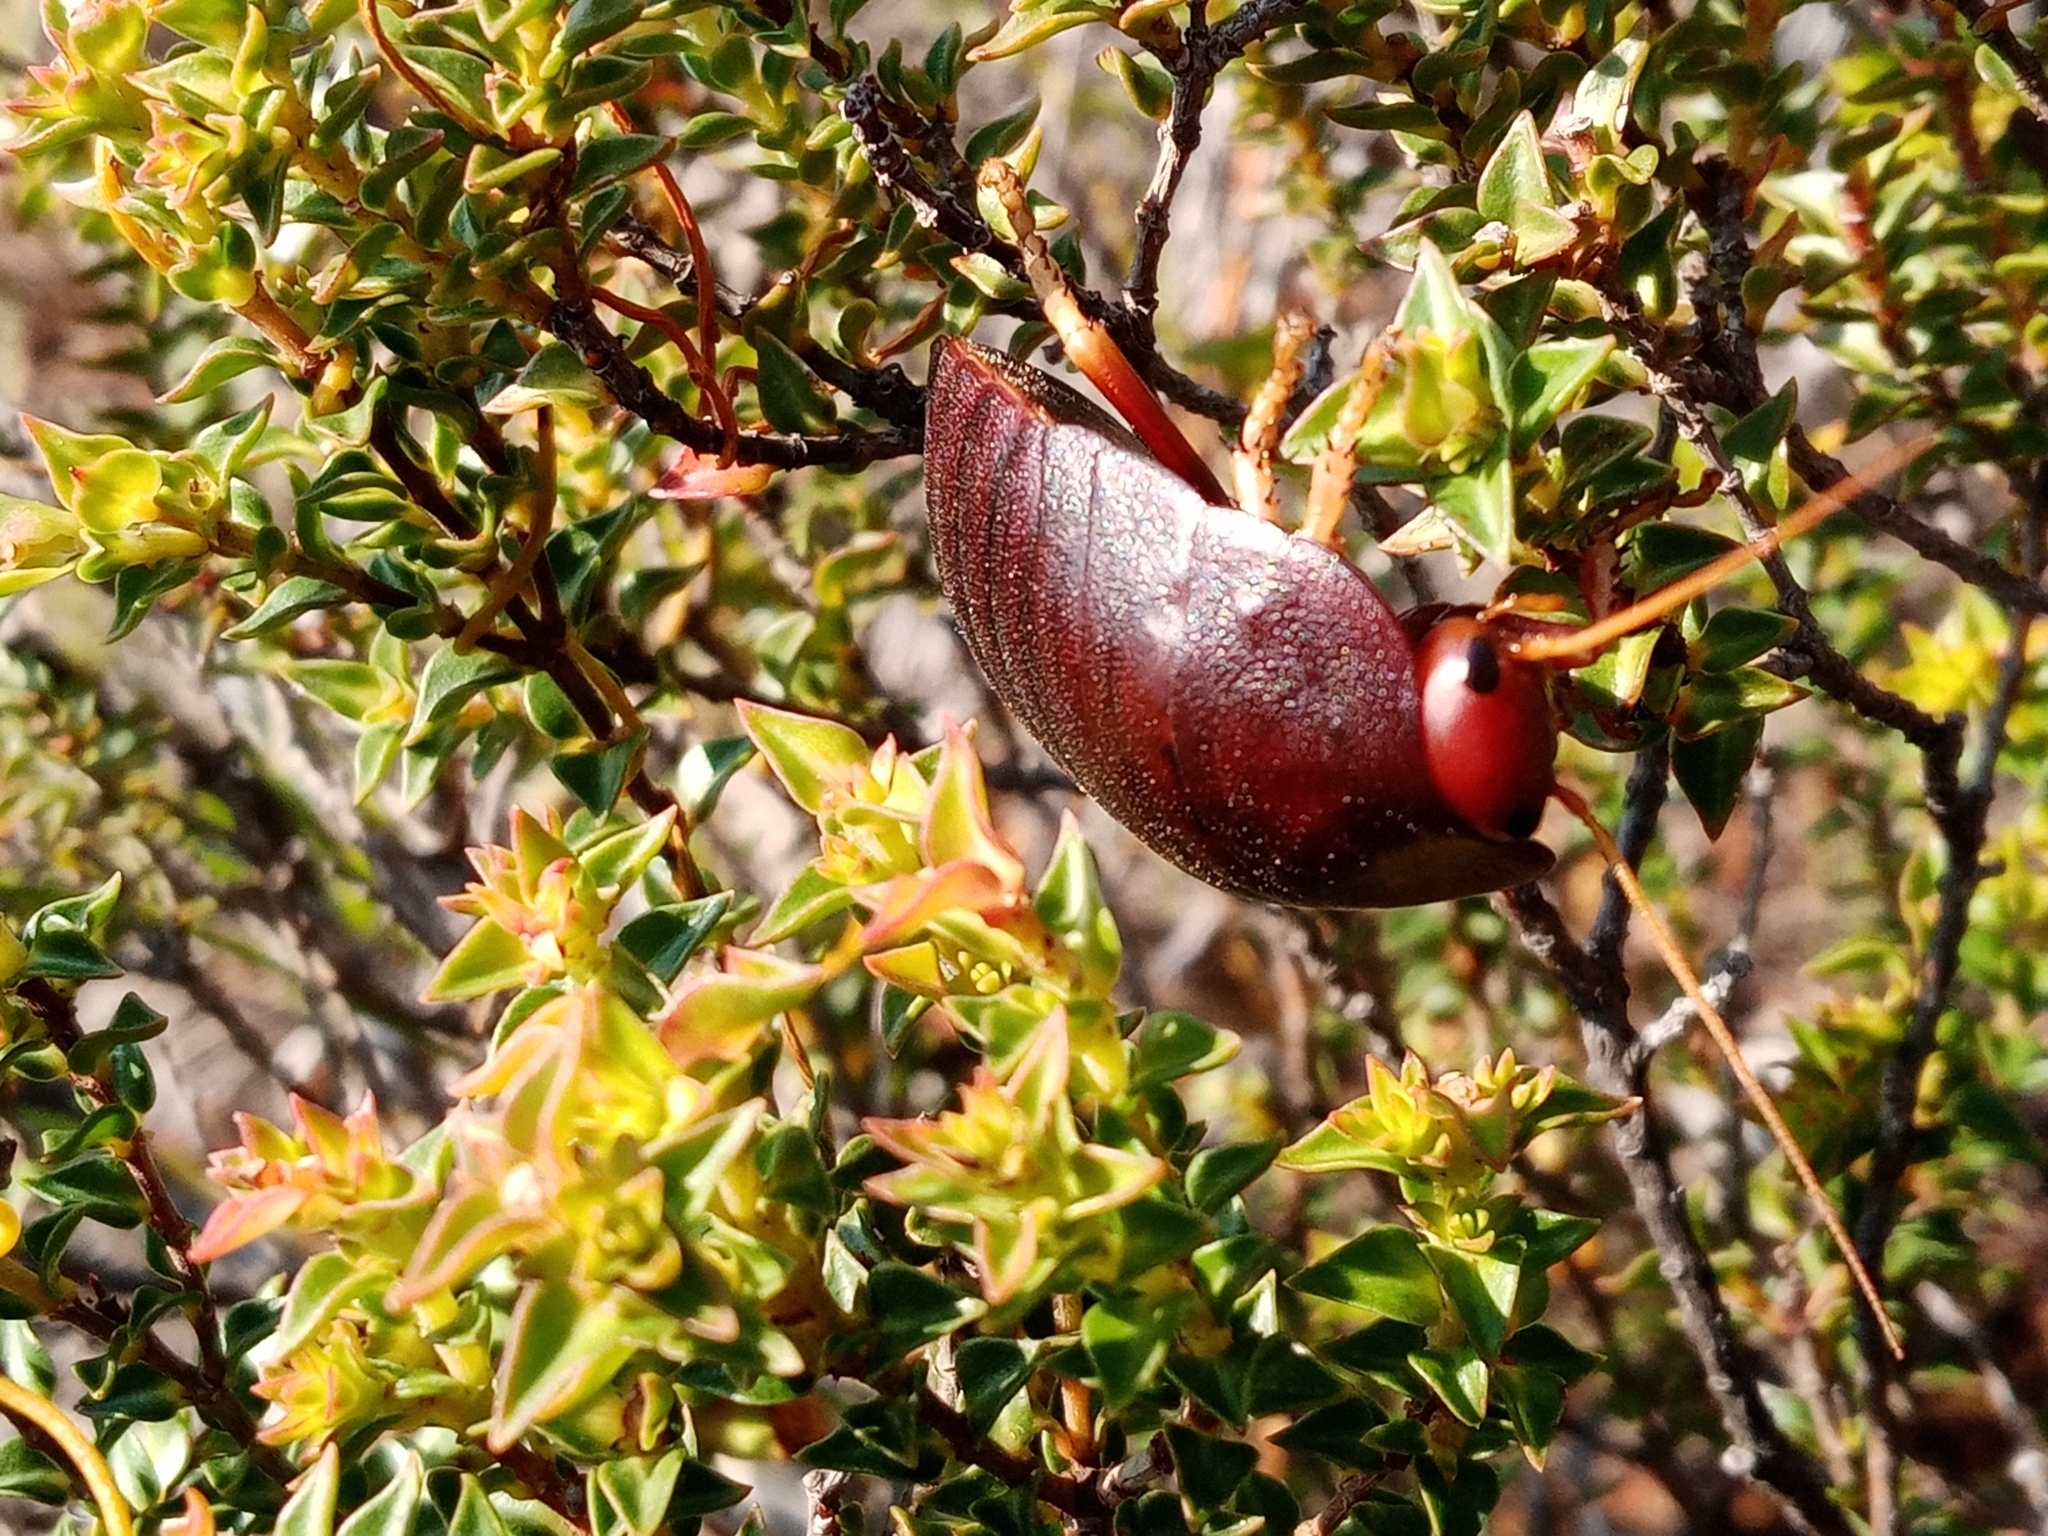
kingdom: Animalia
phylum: Arthropoda
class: Insecta
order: Blattodea
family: Blaberidae
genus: Aptera
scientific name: Aptera fusca
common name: Cape mountain cockroach
